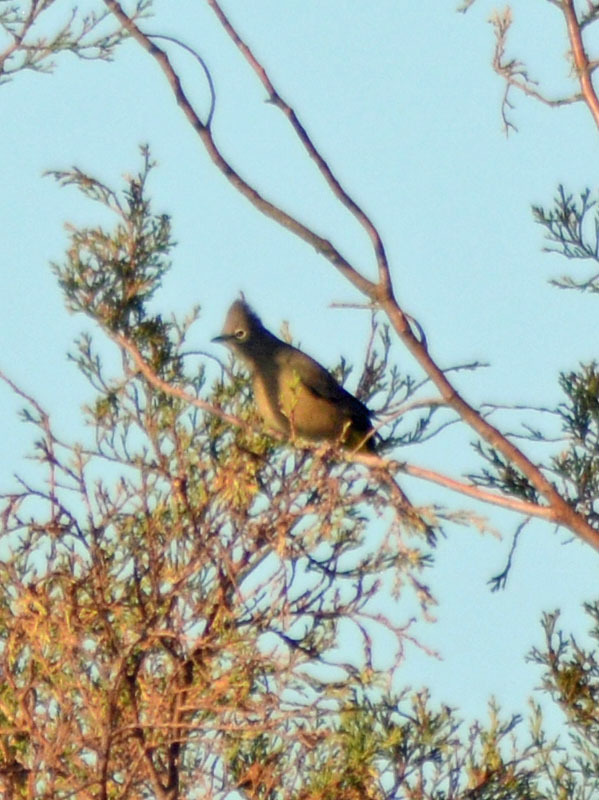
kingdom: Animalia
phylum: Chordata
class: Aves
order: Passeriformes
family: Ptilogonatidae
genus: Ptilogonys
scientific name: Ptilogonys cinereus
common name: Gray silky-flycatcher
